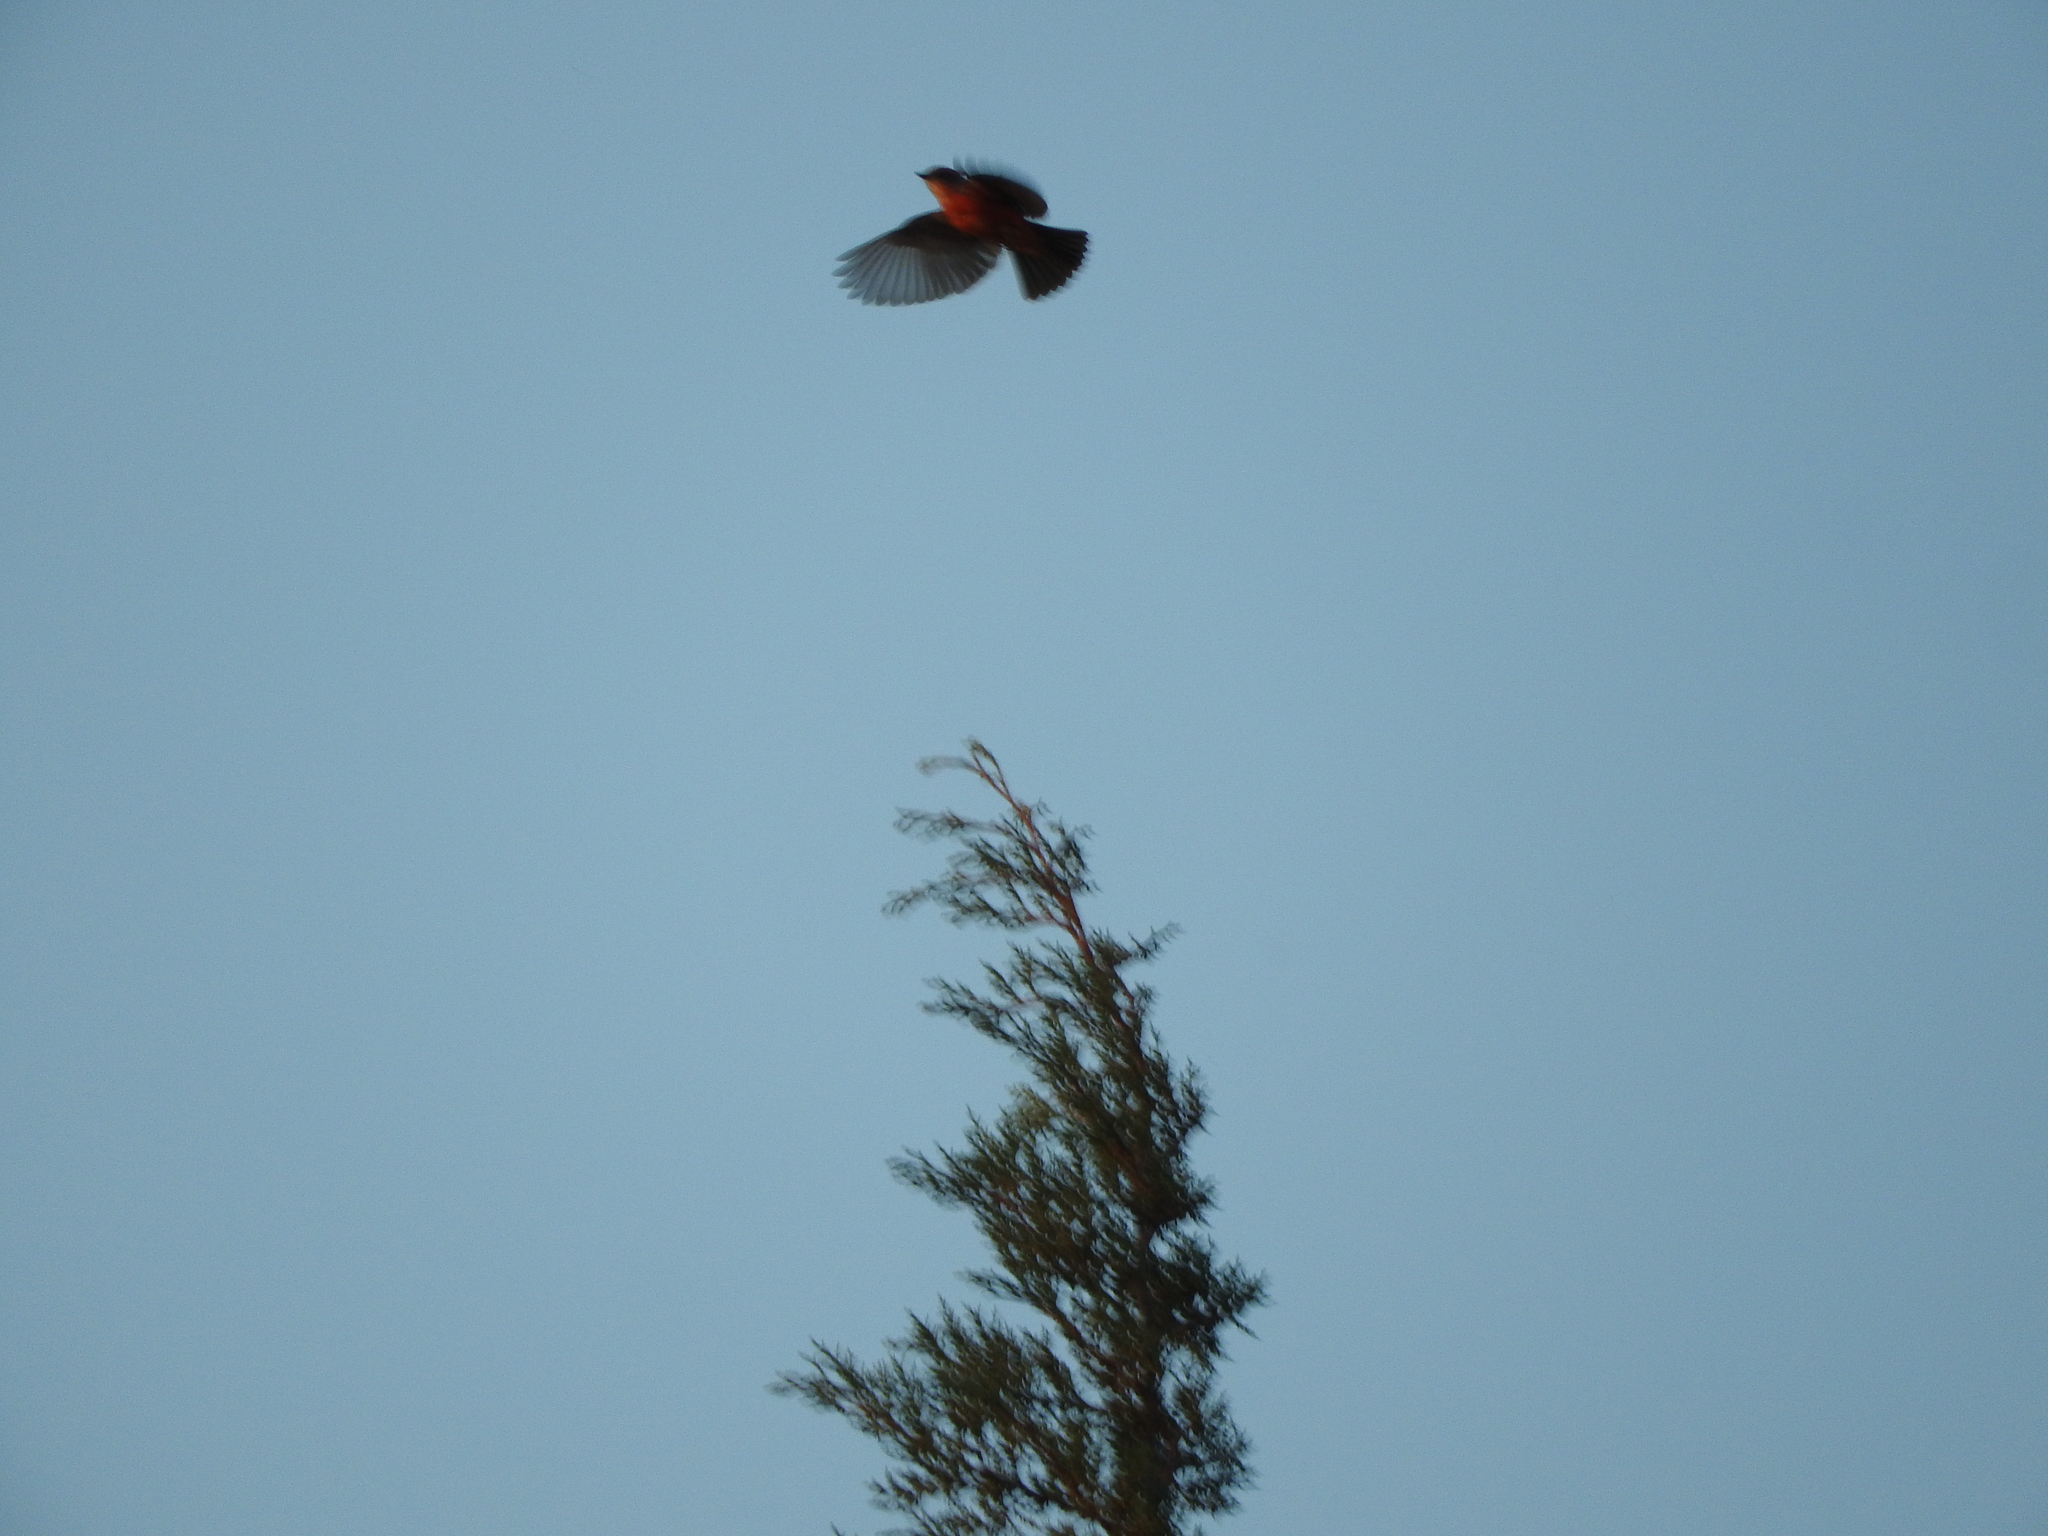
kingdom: Animalia
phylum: Chordata
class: Aves
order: Passeriformes
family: Tyrannidae
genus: Pyrocephalus
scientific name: Pyrocephalus rubinus
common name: Vermilion flycatcher
